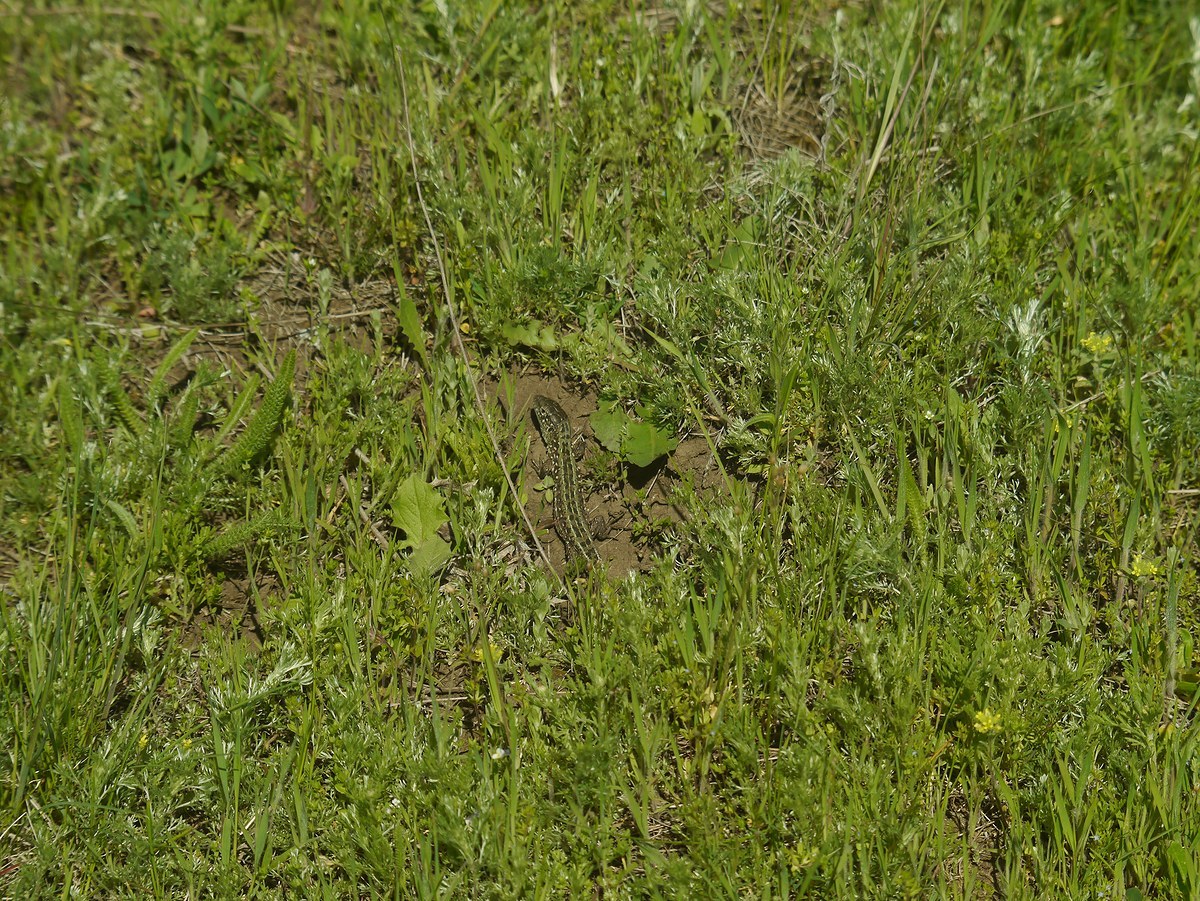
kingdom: Animalia
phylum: Chordata
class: Squamata
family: Lacertidae
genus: Lacerta
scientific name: Lacerta agilis
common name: Sand lizard
